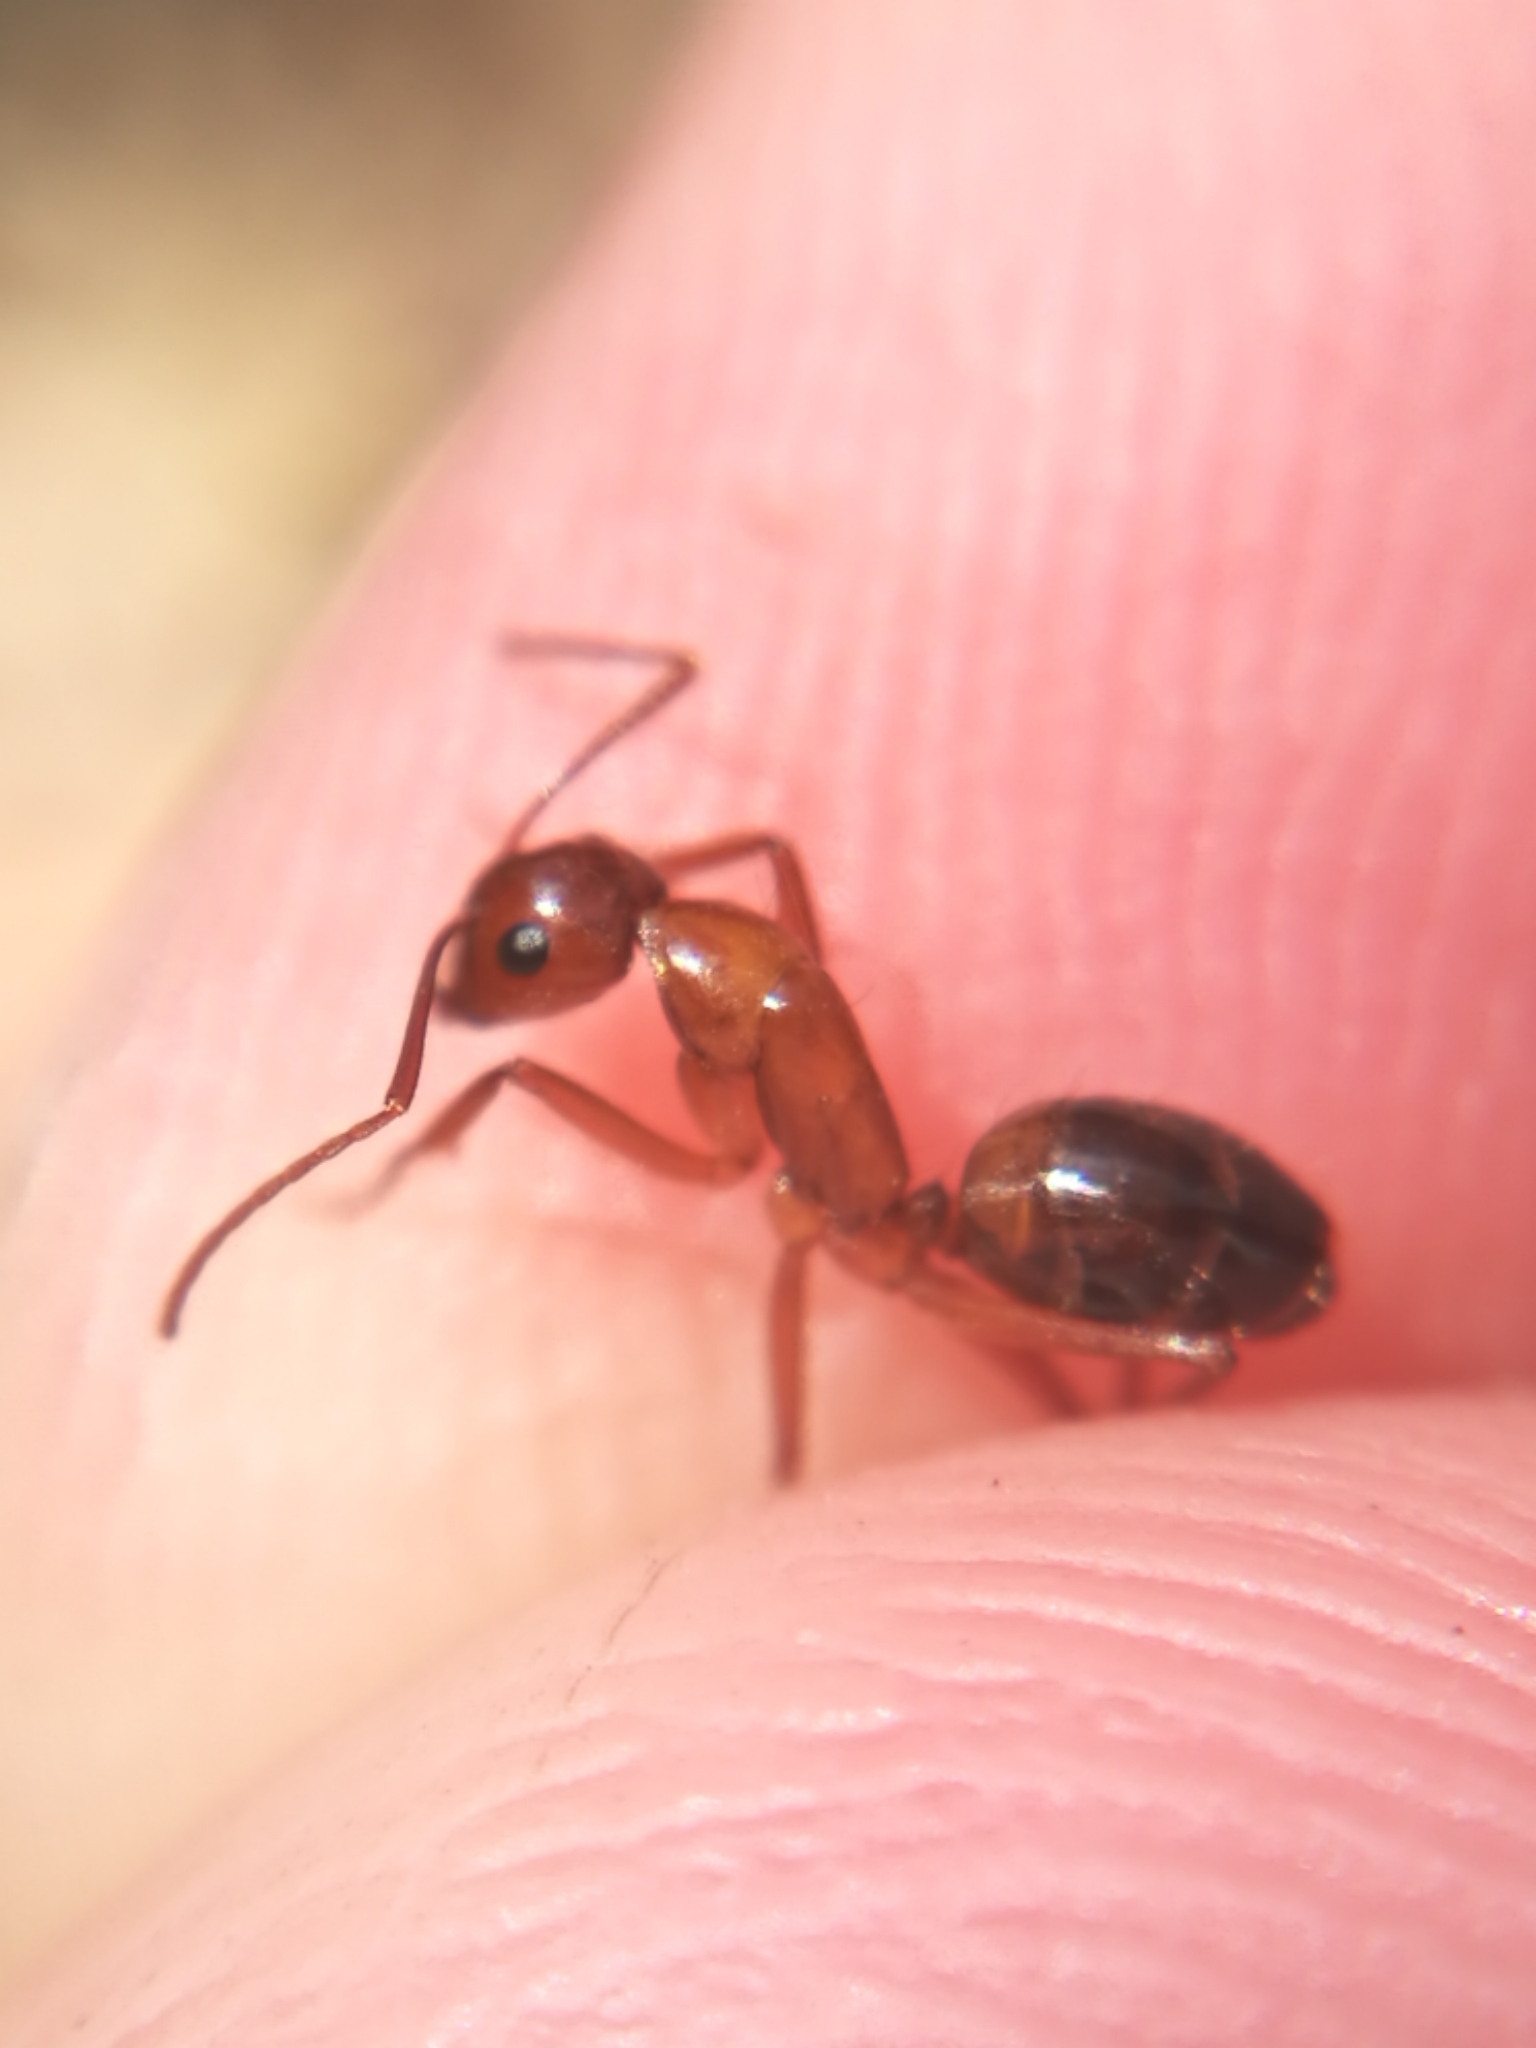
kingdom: Animalia
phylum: Arthropoda
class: Insecta
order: Hymenoptera
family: Formicidae
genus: Camponotus
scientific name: Camponotus nylanderi
